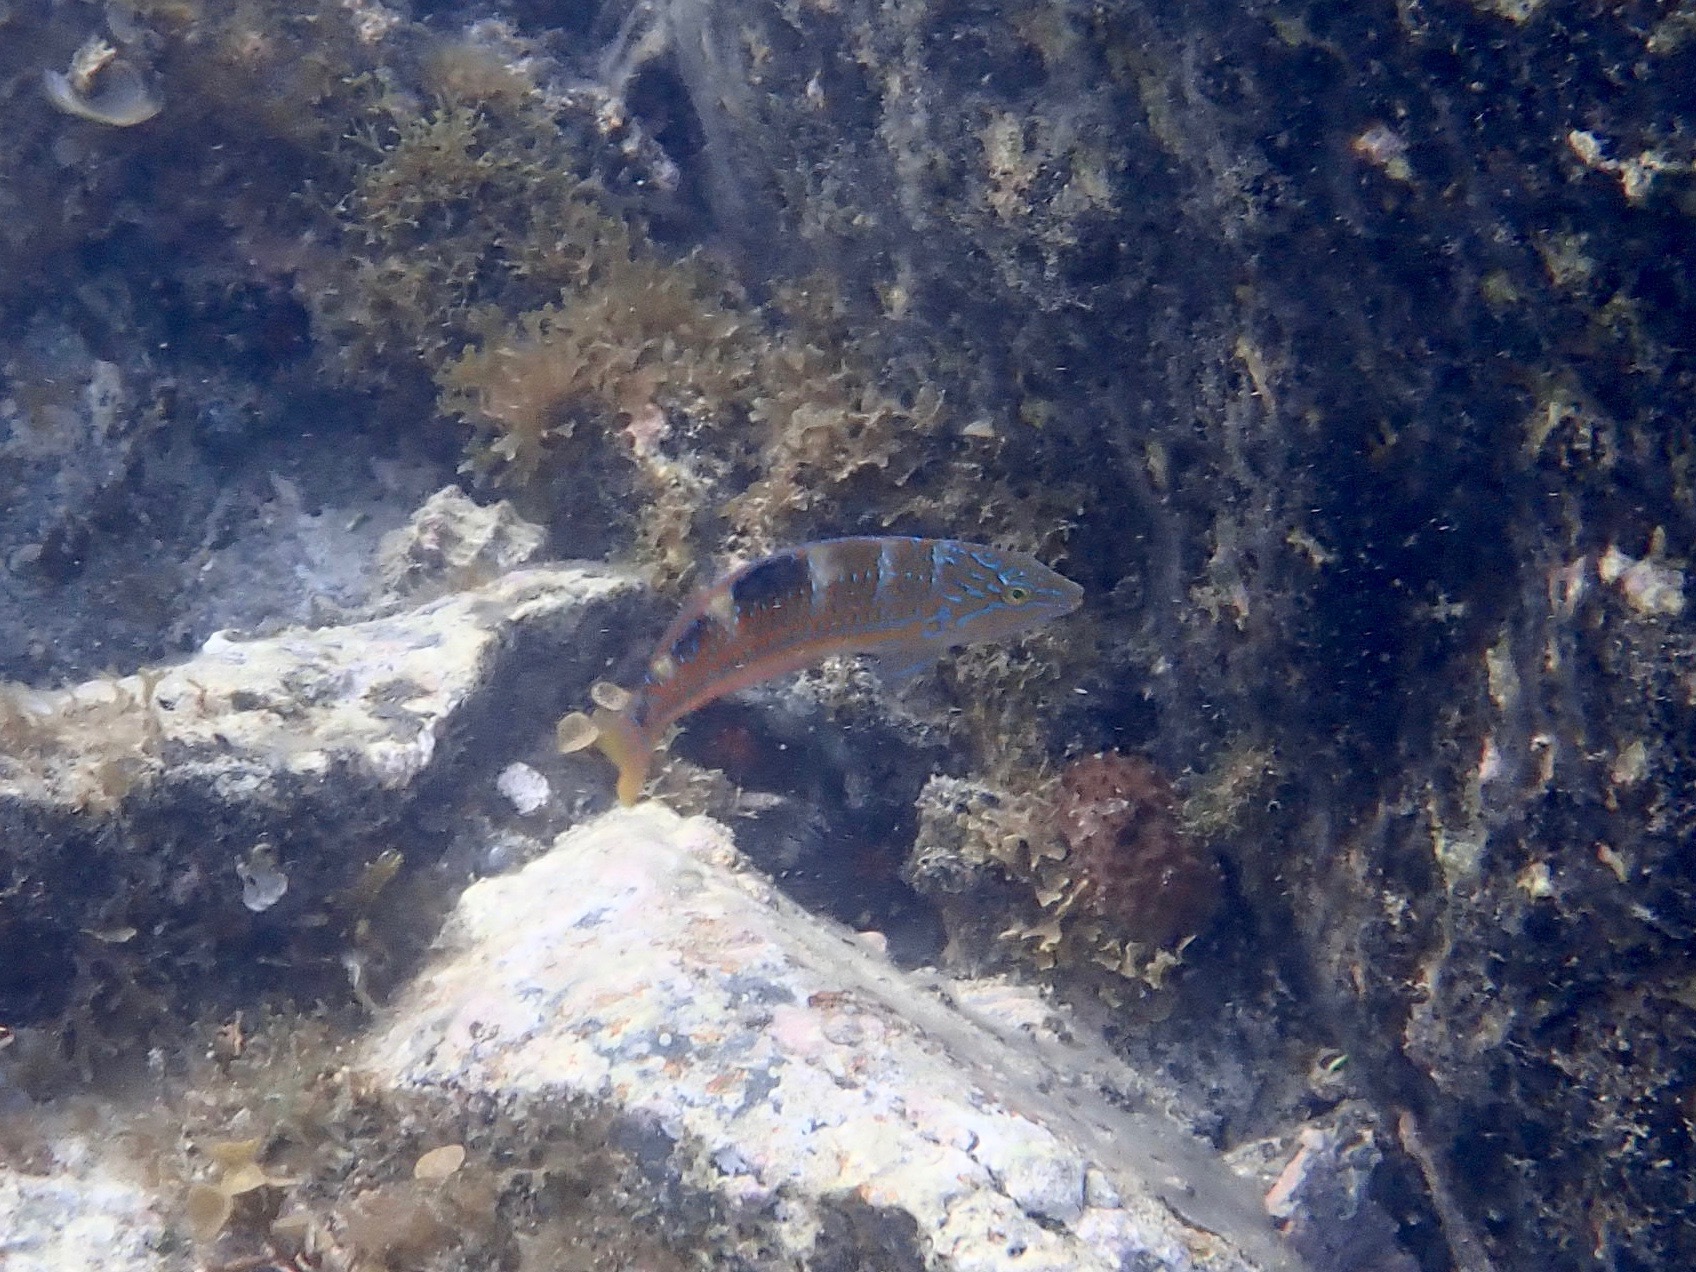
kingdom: Animalia
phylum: Chordata
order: Perciformes
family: Labridae
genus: Halichoeres
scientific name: Halichoeres radiatus
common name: Puddingwife
